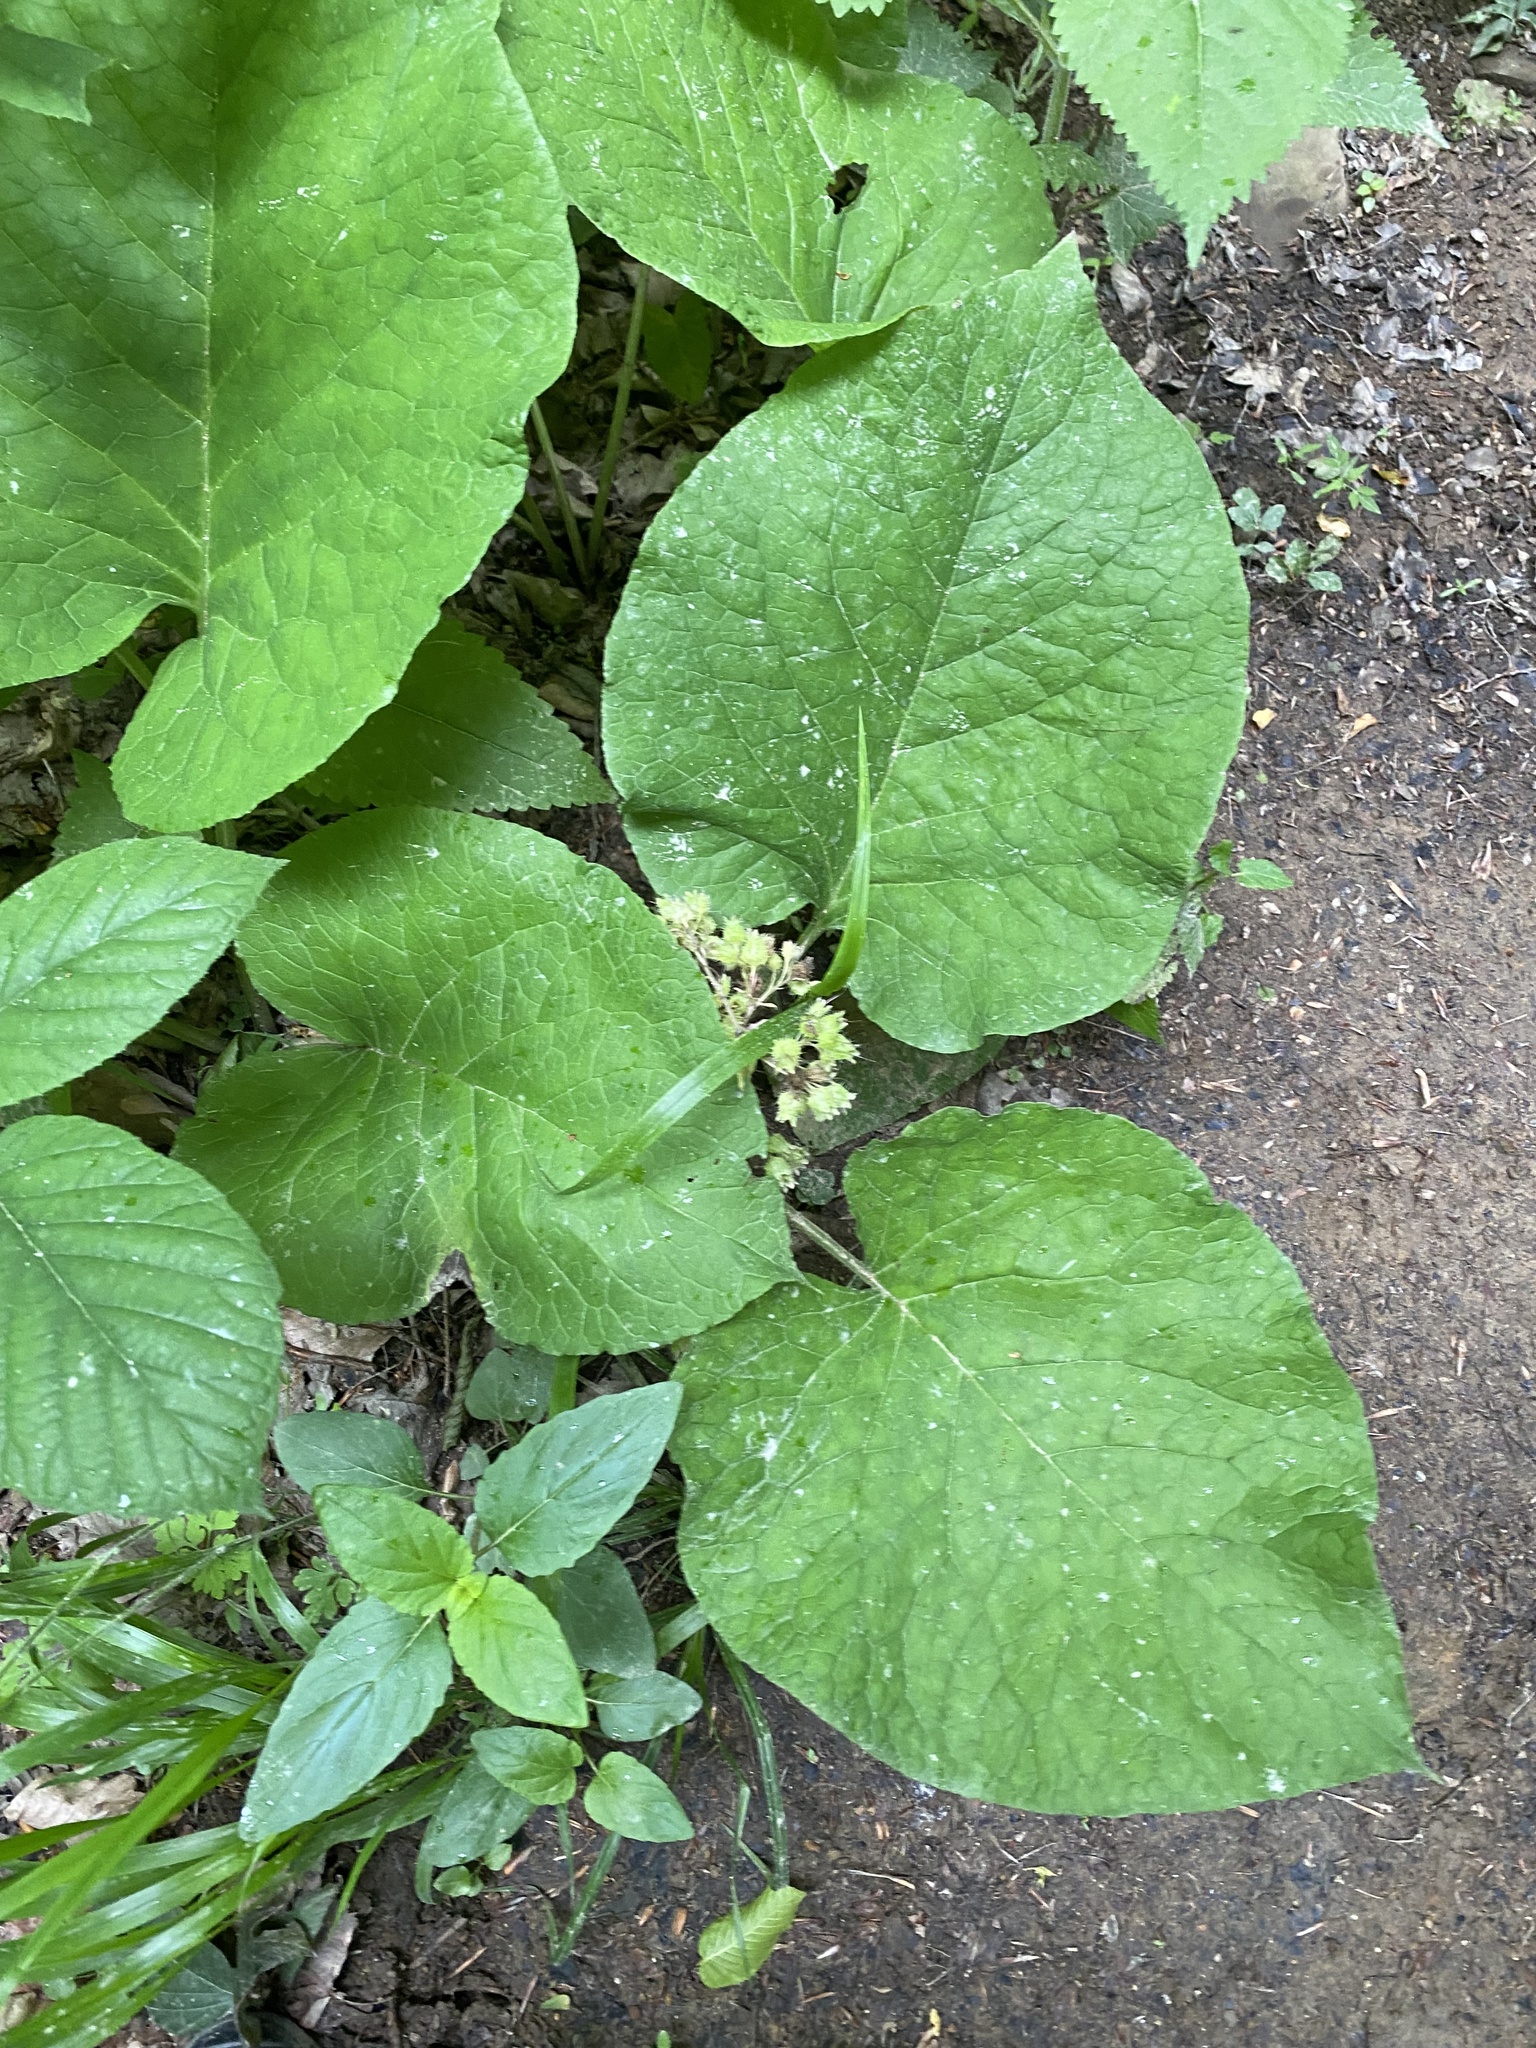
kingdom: Plantae
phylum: Tracheophyta
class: Magnoliopsida
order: Boraginales
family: Boraginaceae
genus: Trachystemon
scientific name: Trachystemon orientale
